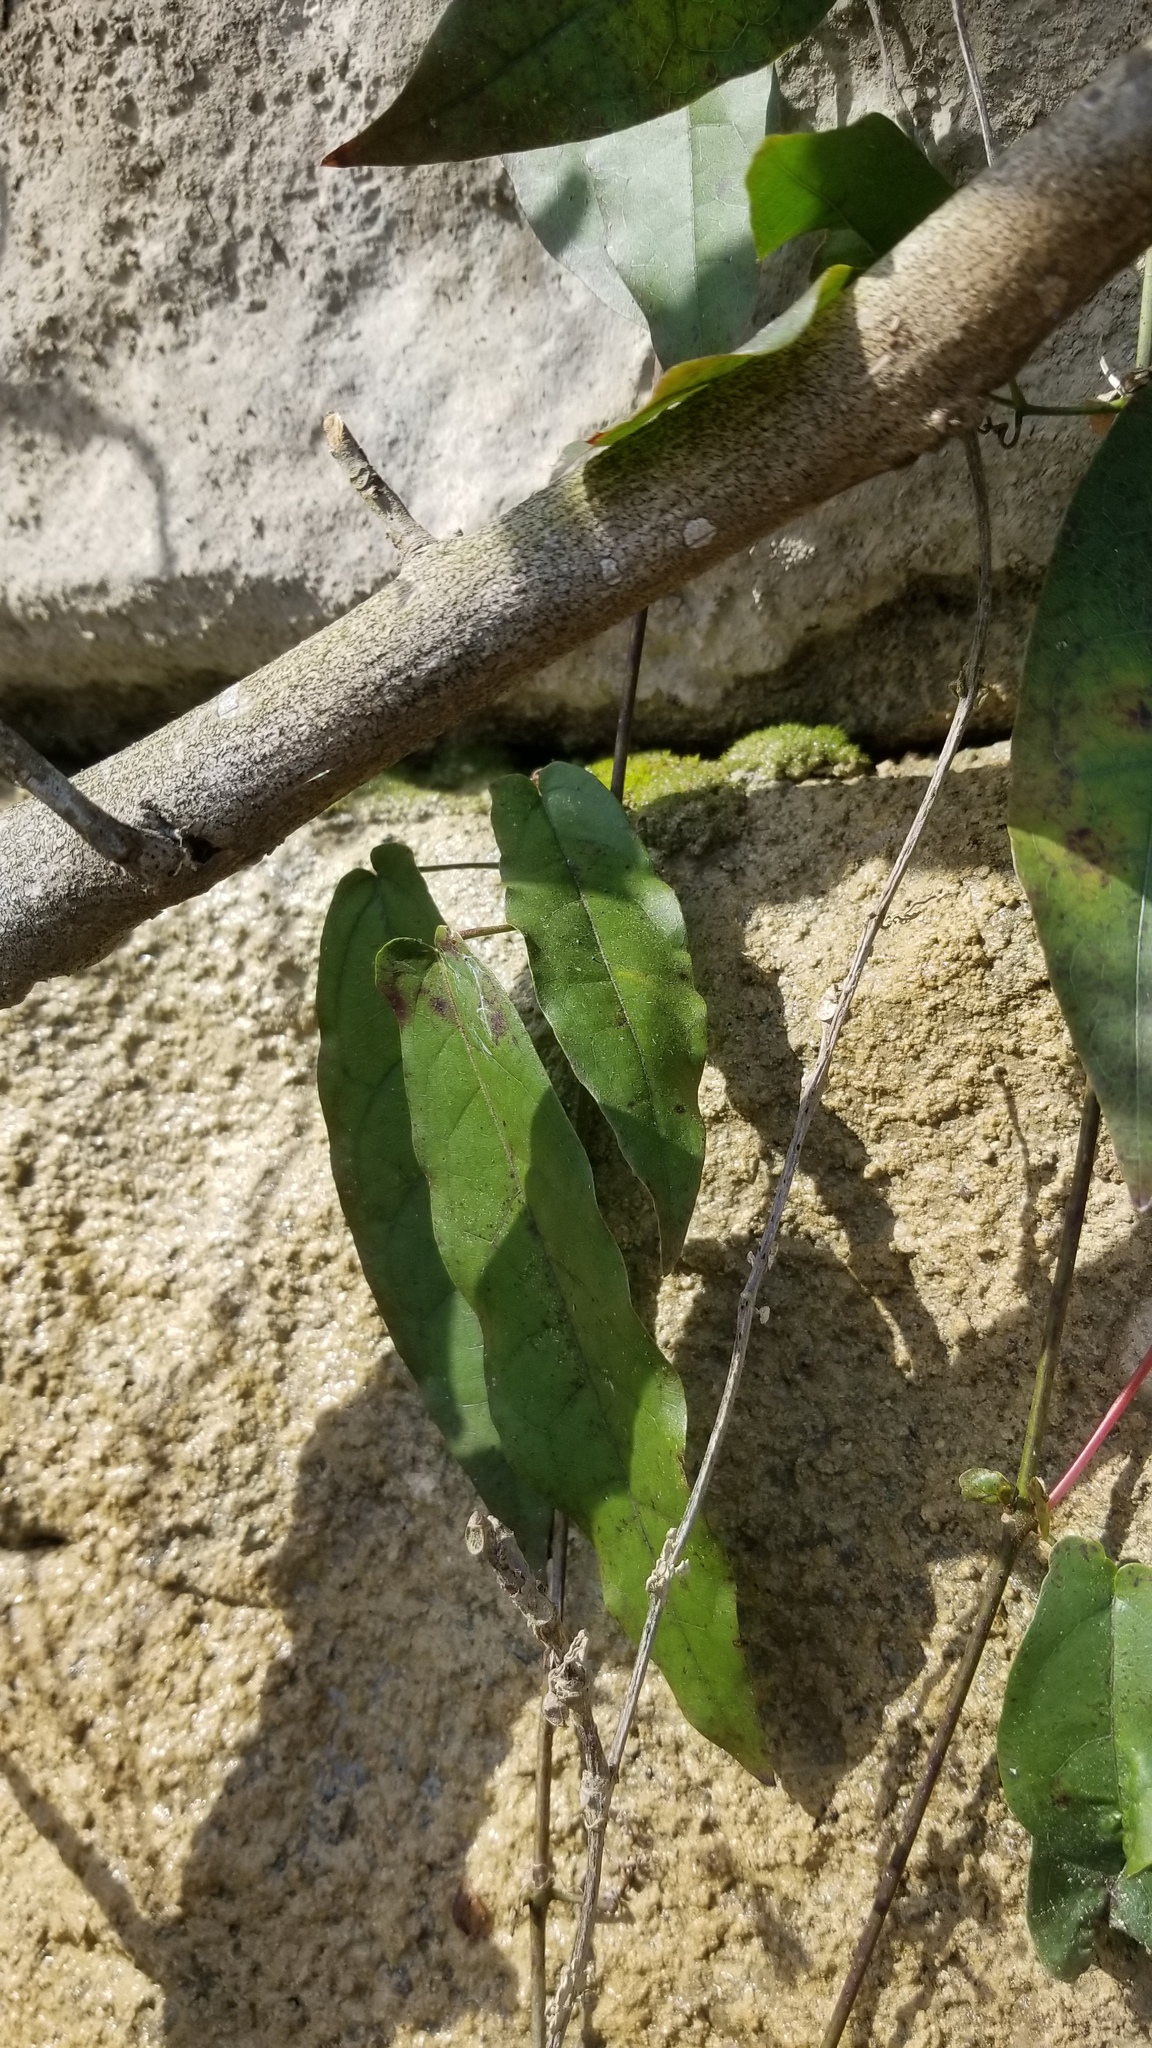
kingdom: Plantae
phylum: Tracheophyta
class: Magnoliopsida
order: Lamiales
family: Bignoniaceae
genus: Bignonia
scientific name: Bignonia capreolata
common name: Crossvine
